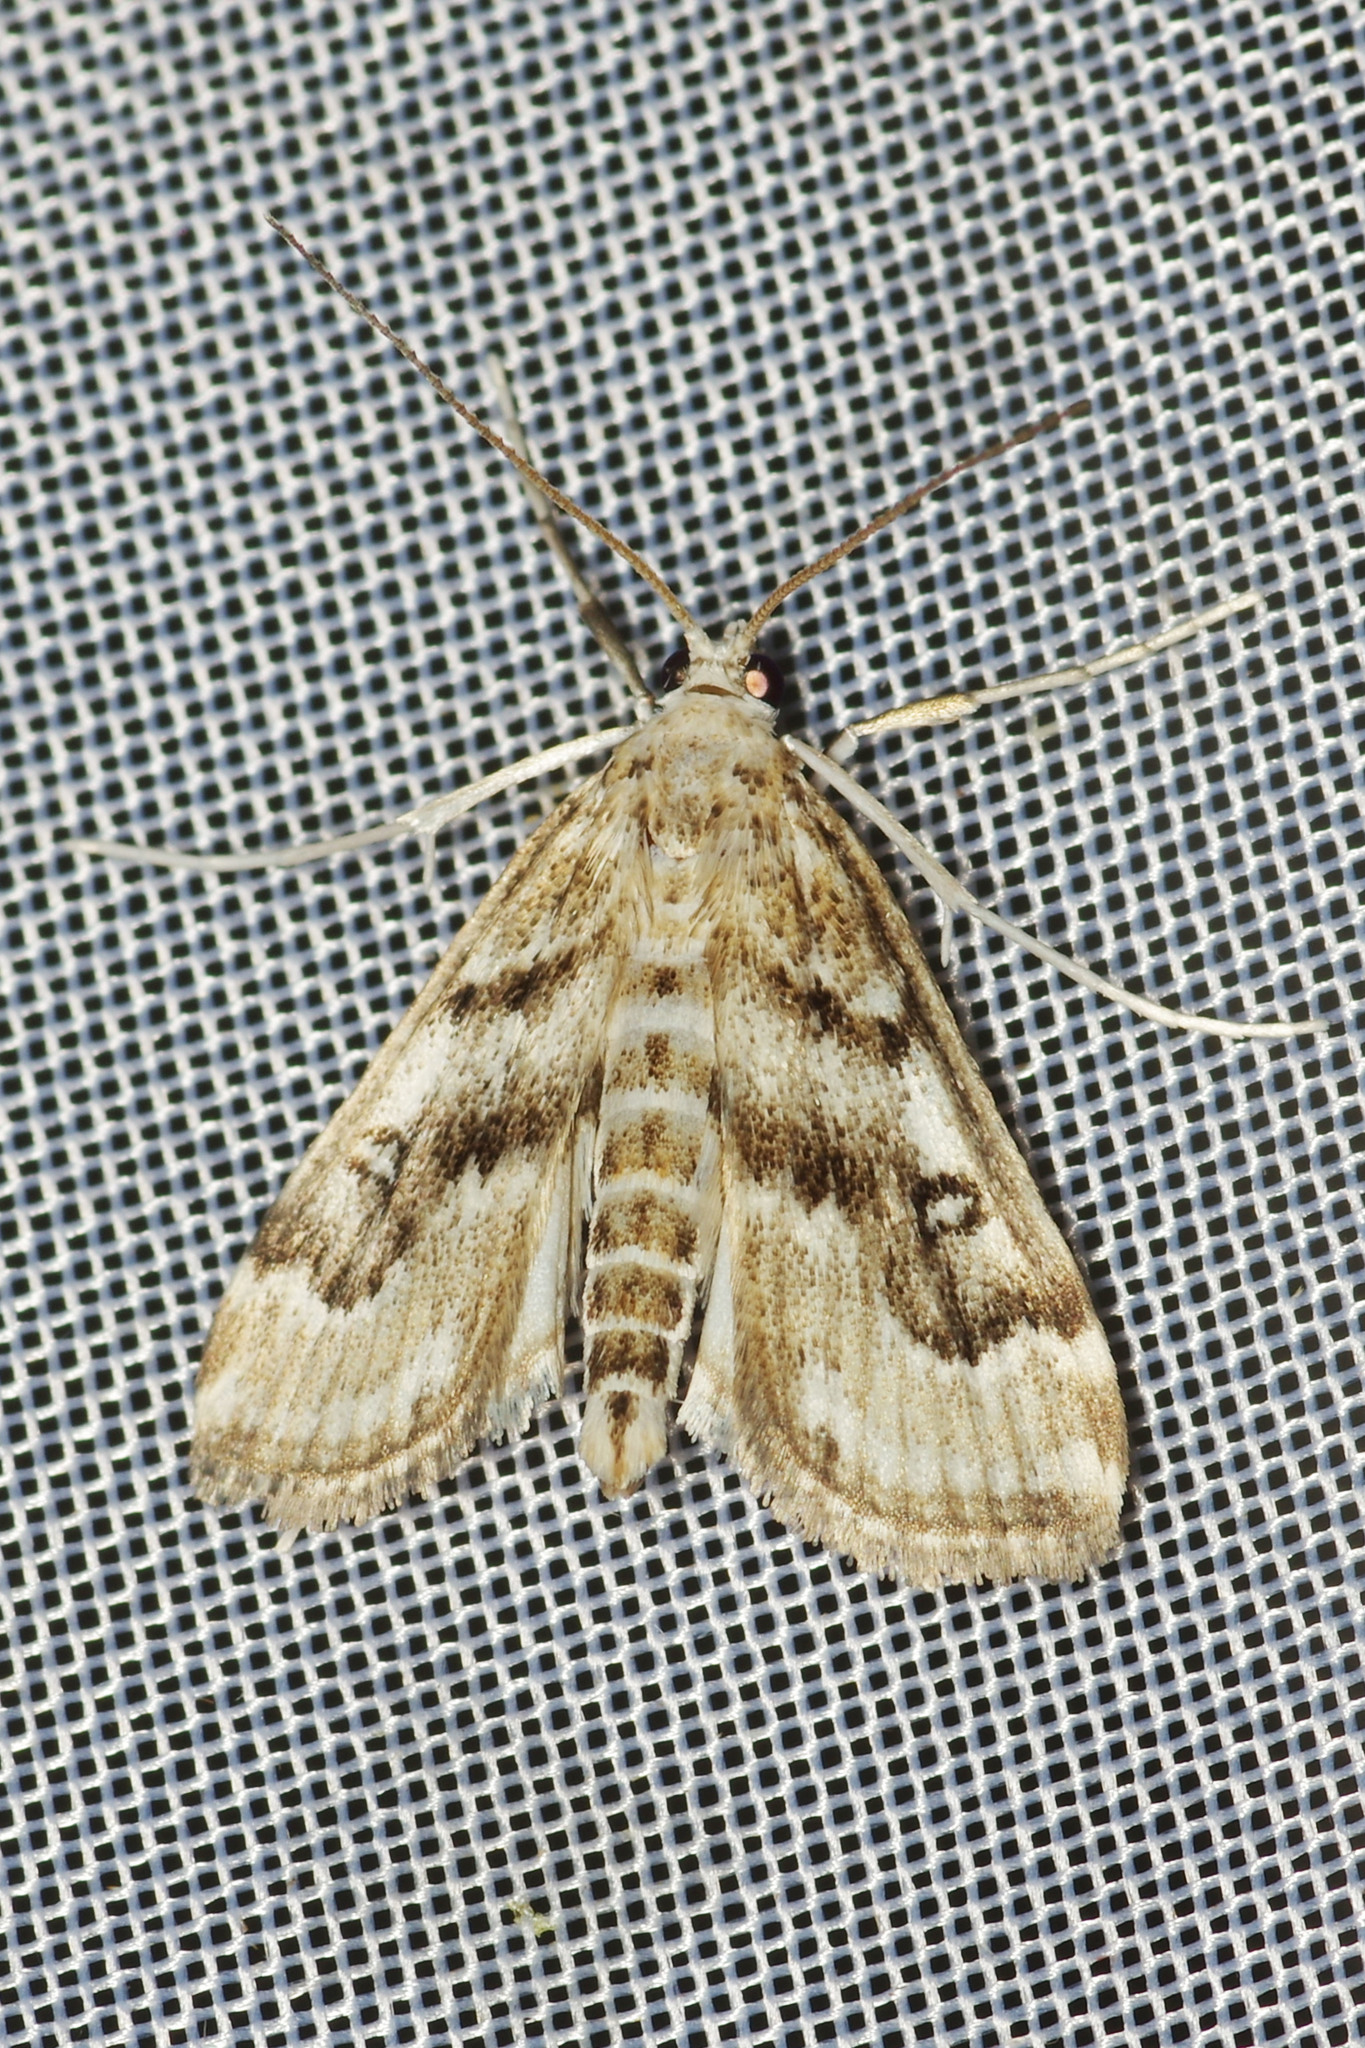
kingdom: Animalia
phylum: Arthropoda
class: Insecta
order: Lepidoptera
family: Crambidae
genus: Parapoynx
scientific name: Parapoynx stratiotata
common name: Ringed china-mark
